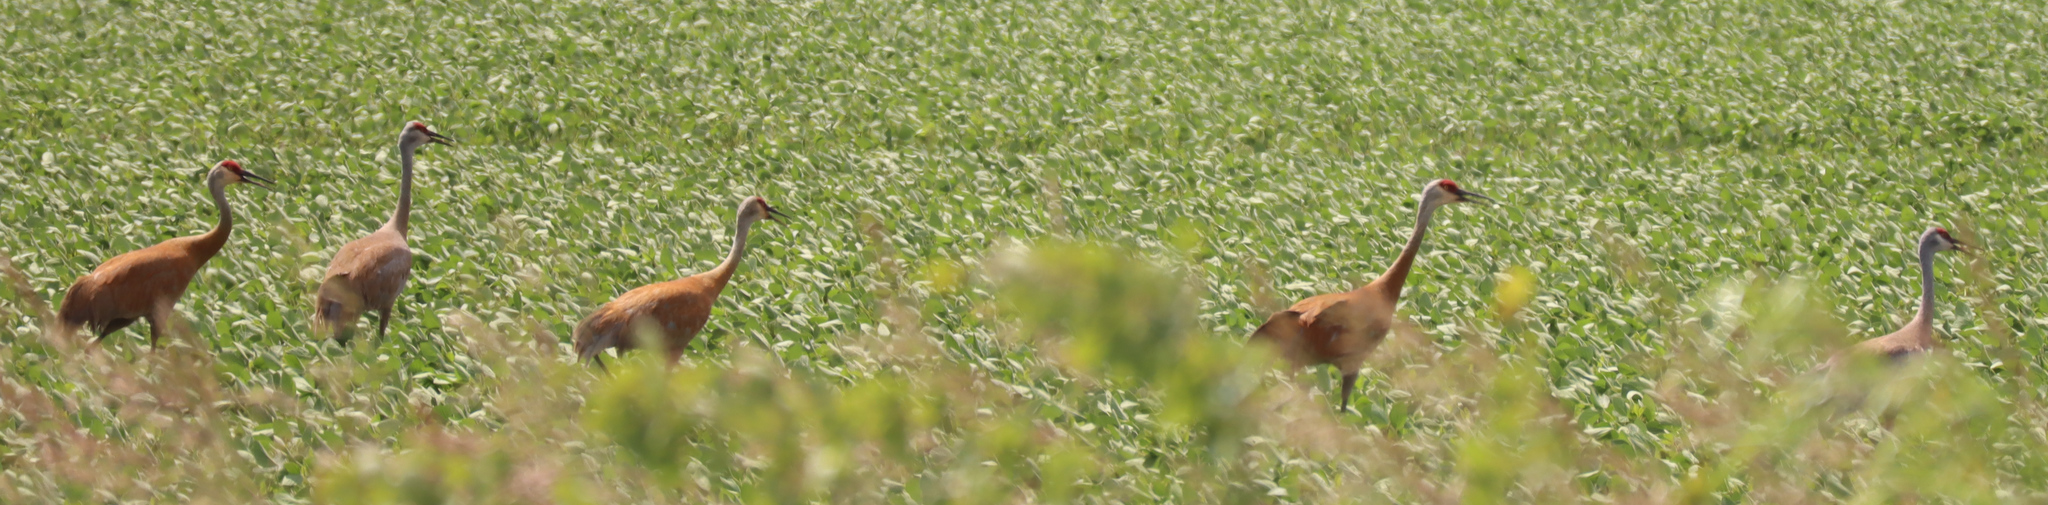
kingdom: Animalia
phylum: Chordata
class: Aves
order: Gruiformes
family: Gruidae
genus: Grus
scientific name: Grus canadensis
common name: Sandhill crane
